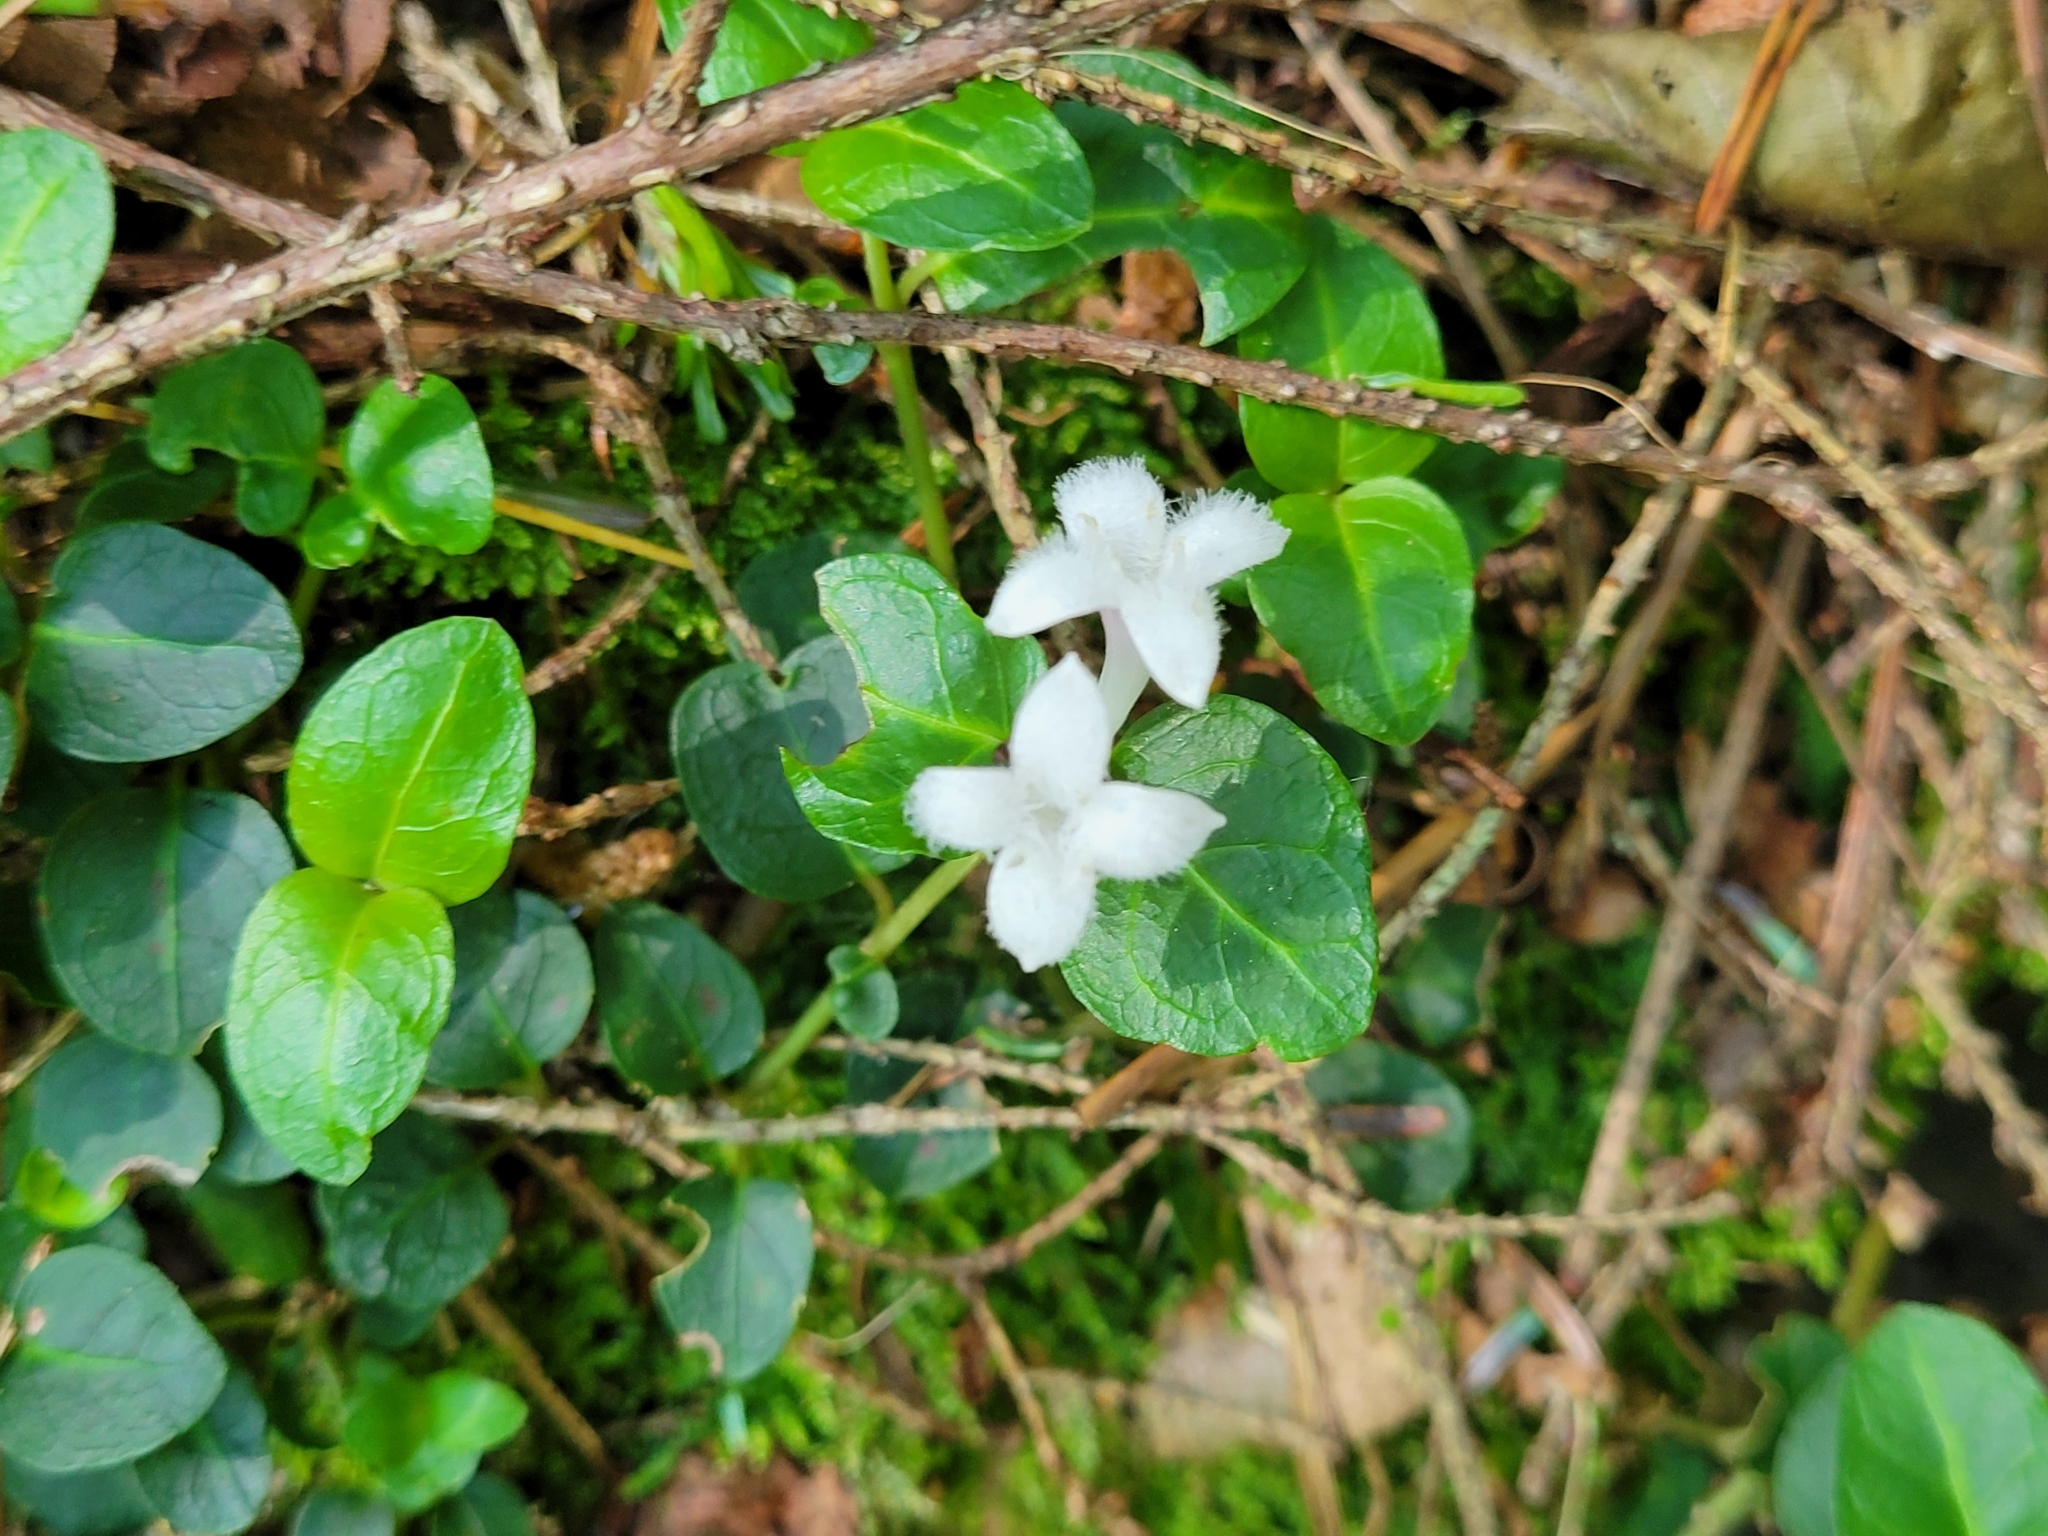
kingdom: Plantae
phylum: Tracheophyta
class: Magnoliopsida
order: Gentianales
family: Rubiaceae
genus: Mitchella
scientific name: Mitchella repens
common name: Partridge-berry
